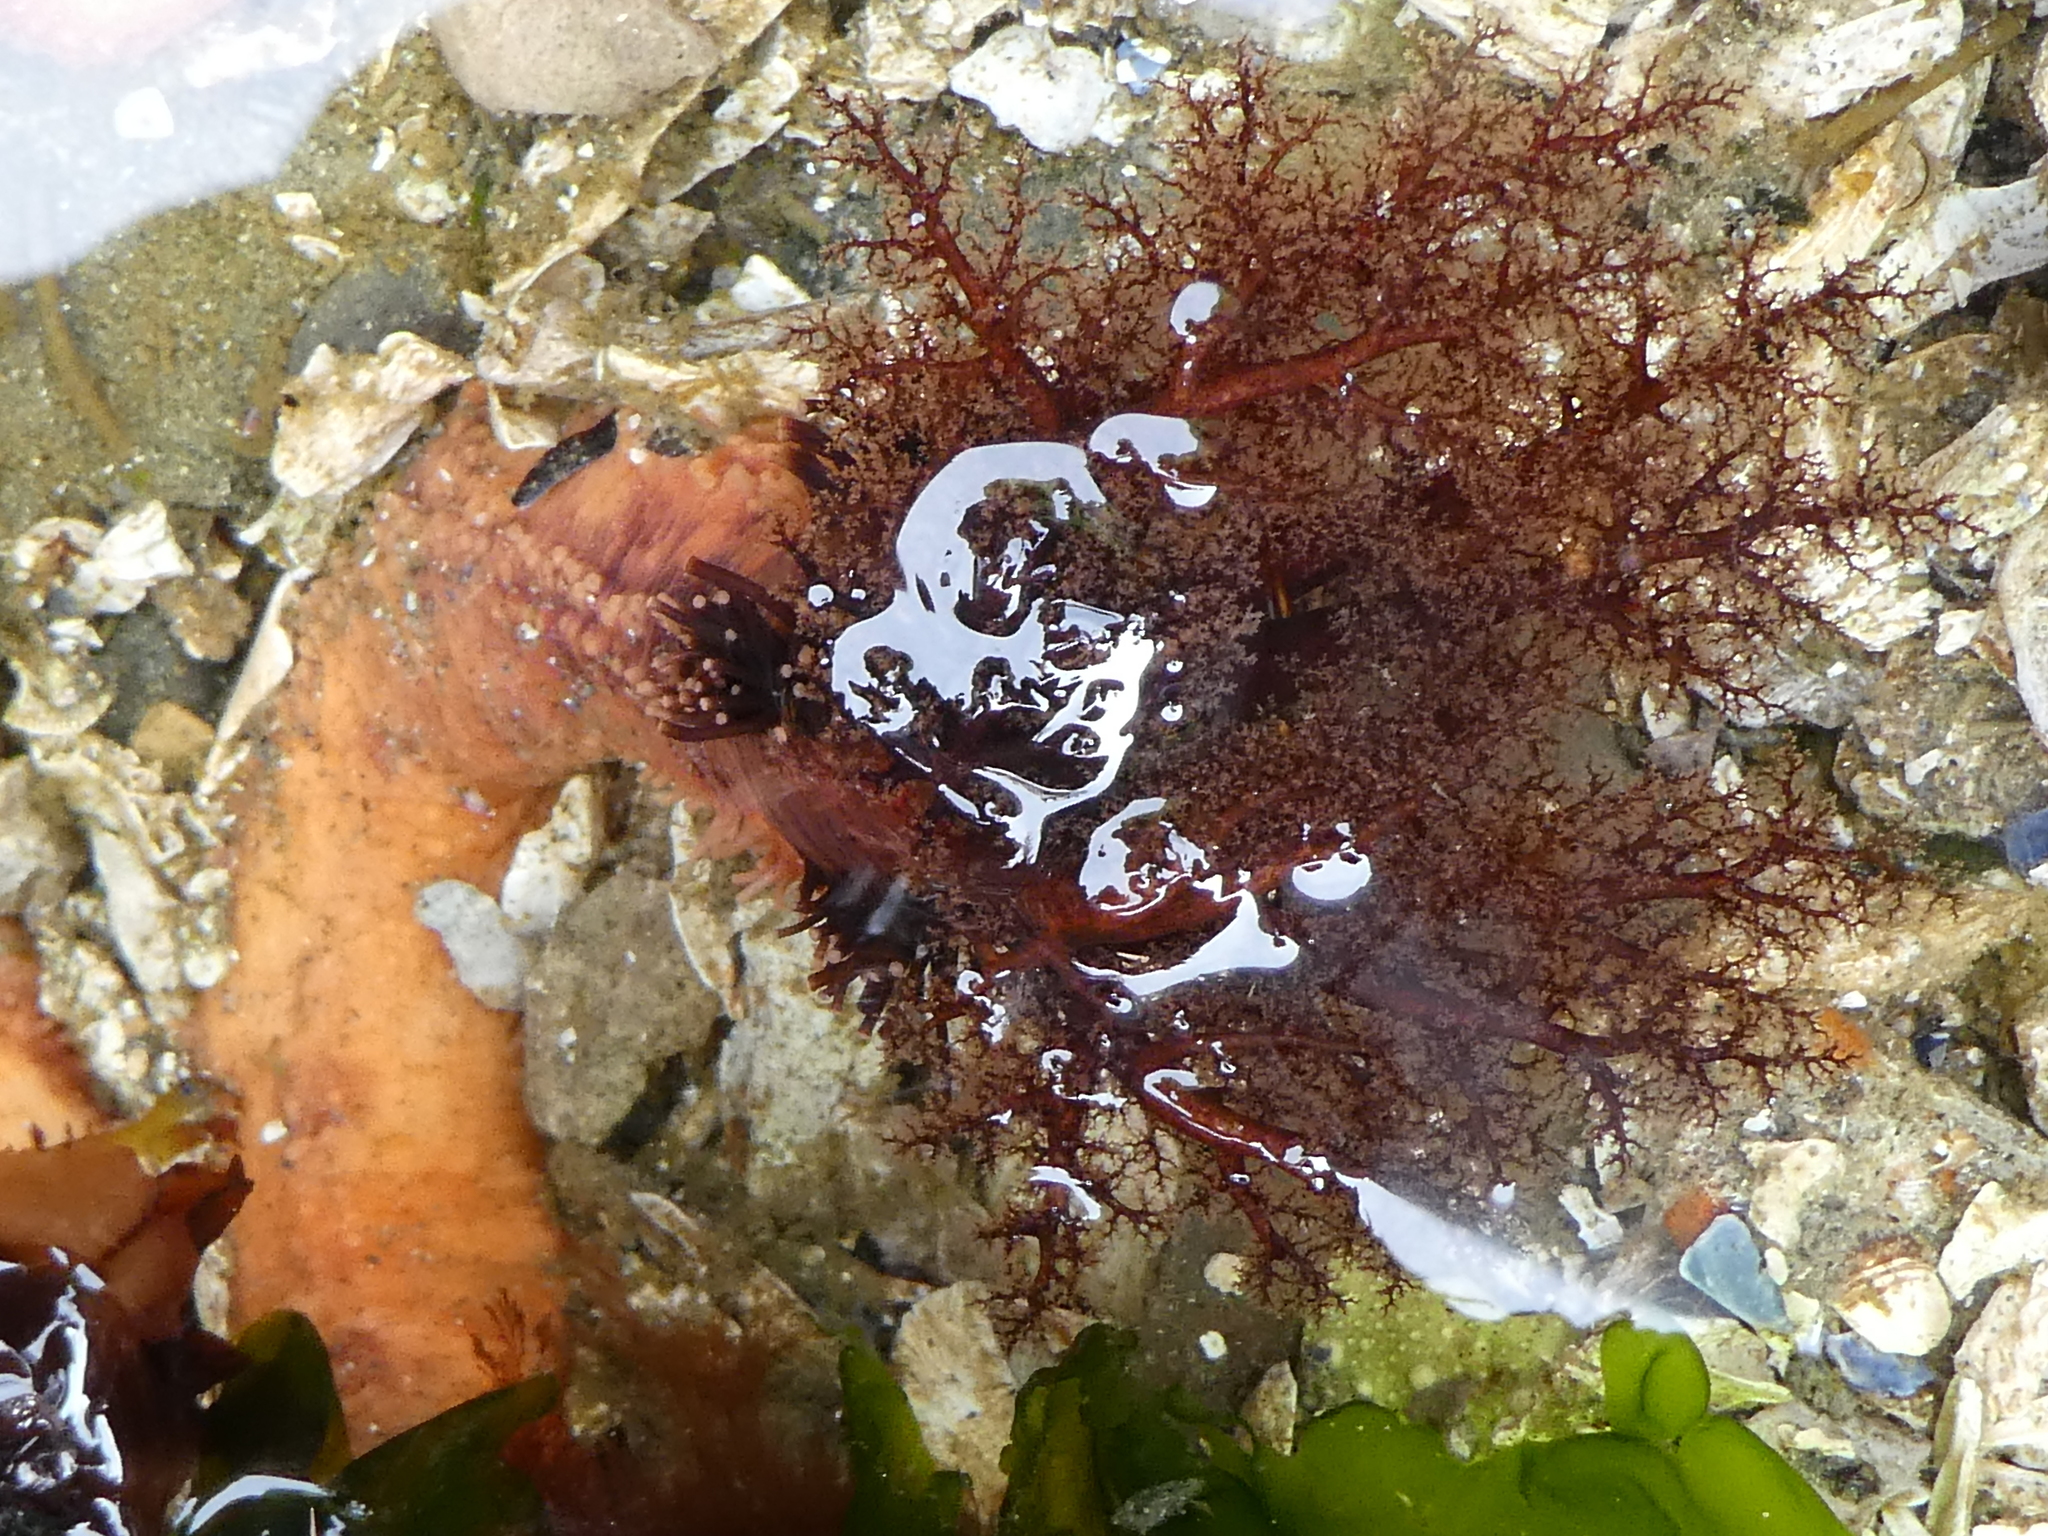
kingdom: Animalia
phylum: Echinodermata
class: Holothuroidea
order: Dendrochirotida
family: Cucumariidae
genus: Cucumaria
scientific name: Cucumaria miniata
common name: Orange sea cucumber
